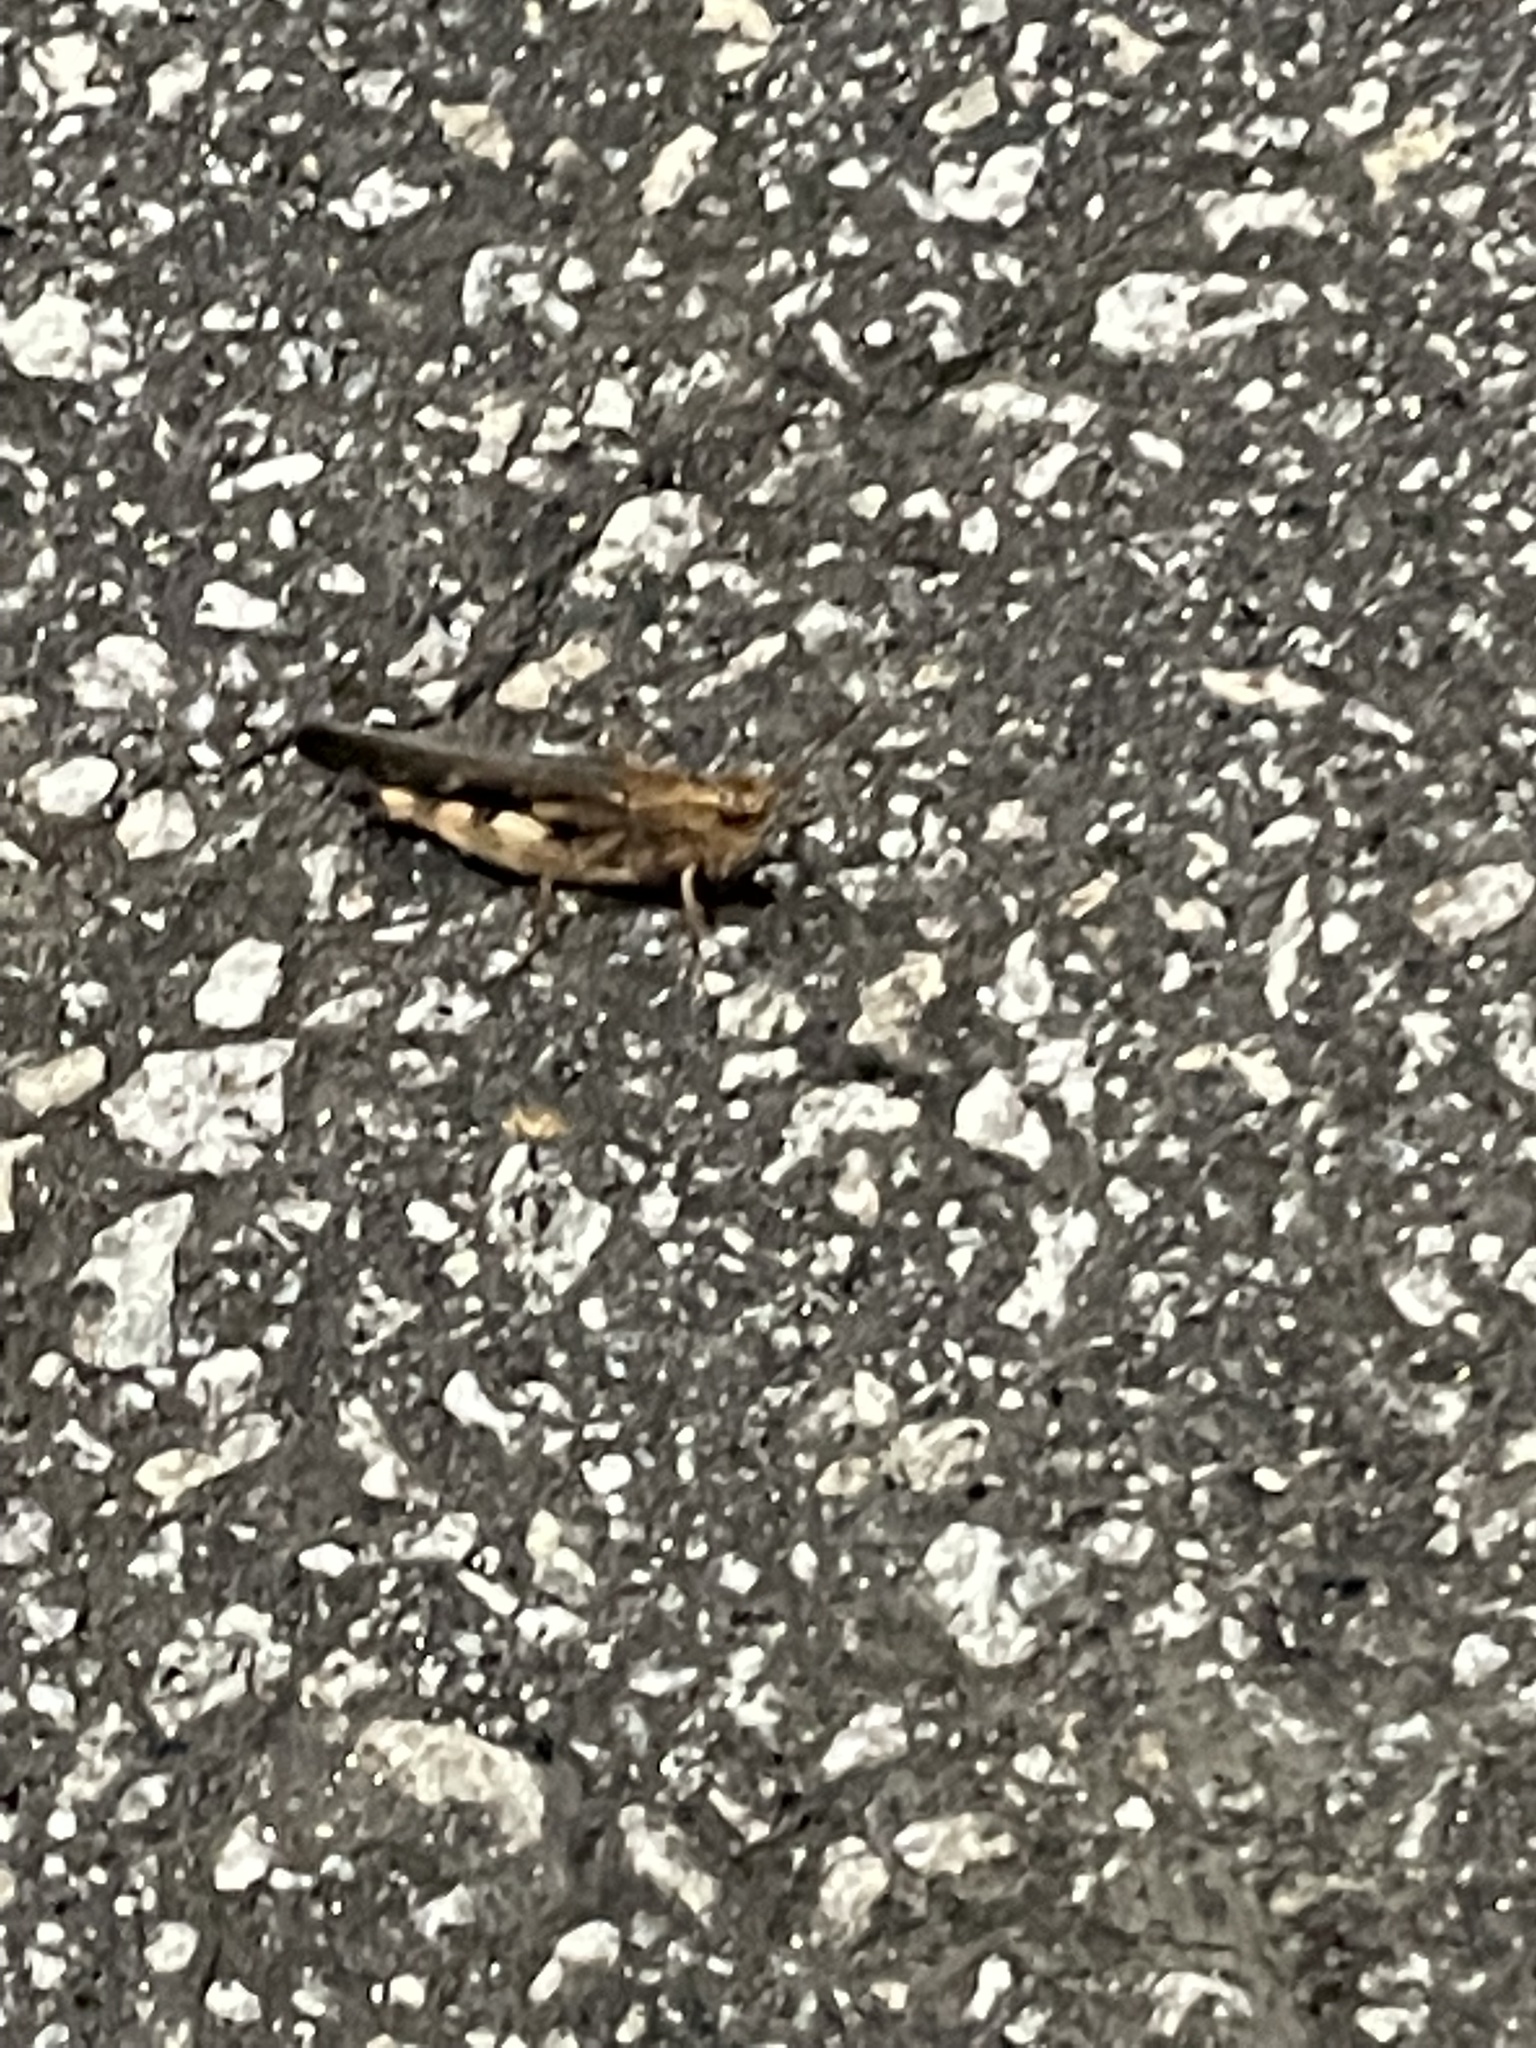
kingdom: Animalia
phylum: Arthropoda
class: Insecta
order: Orthoptera
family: Acrididae
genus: Chortophaga
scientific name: Chortophaga viridifasciata
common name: Green-striped grasshopper
